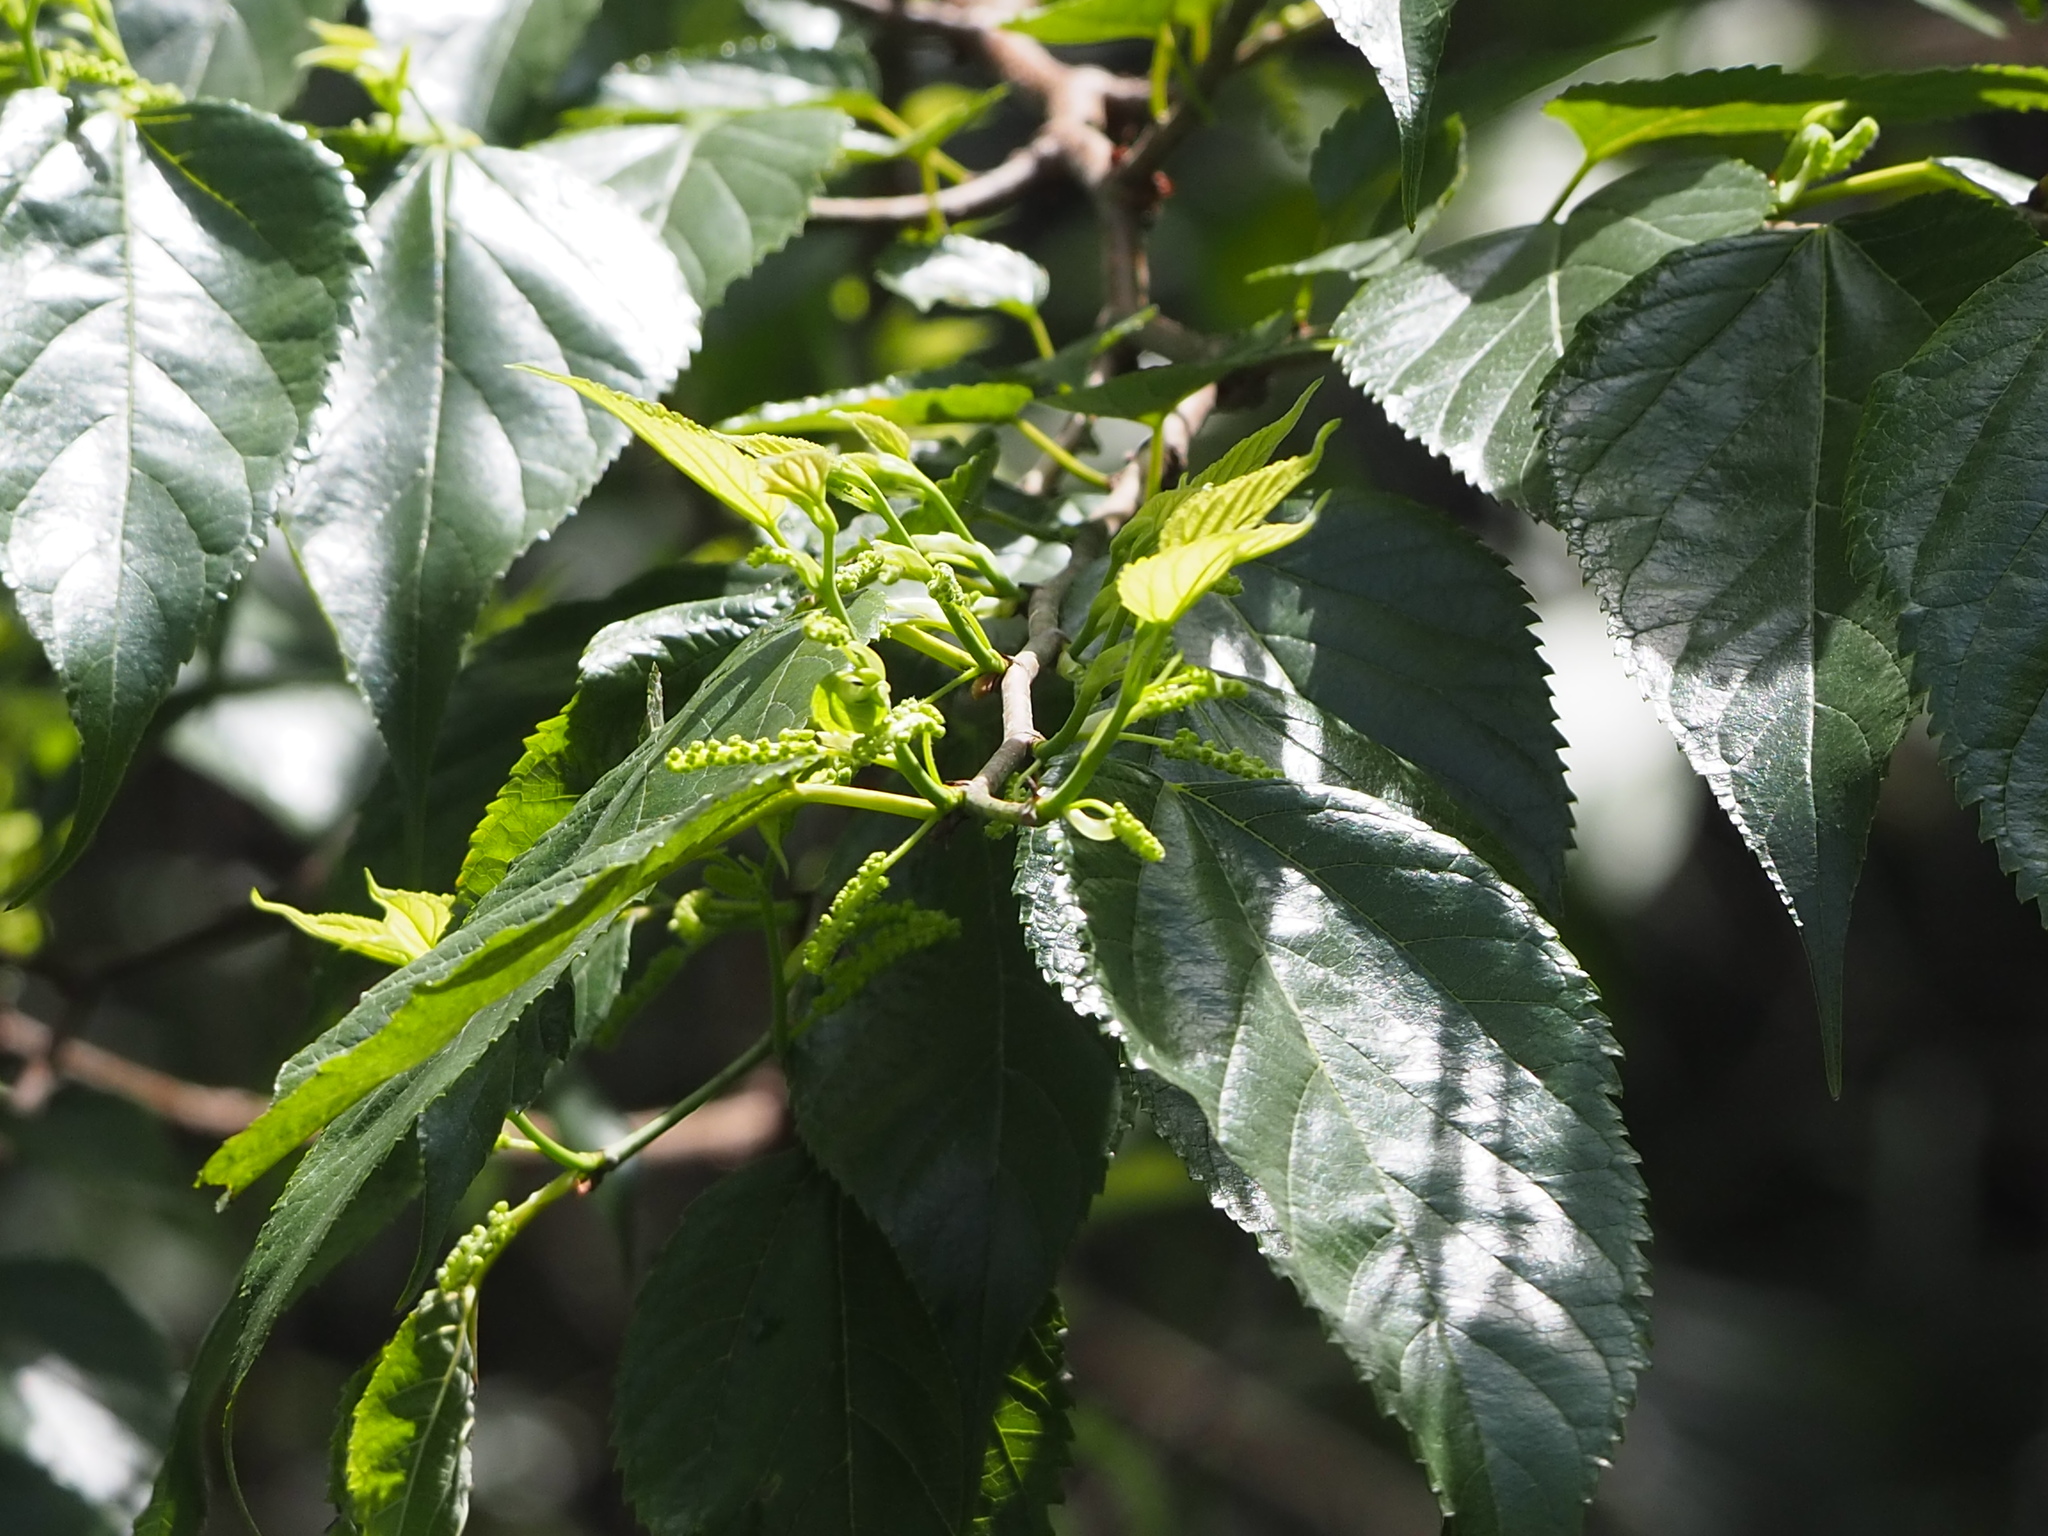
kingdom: Plantae
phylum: Tracheophyta
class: Magnoliopsida
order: Rosales
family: Moraceae
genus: Morus
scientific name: Morus indica
